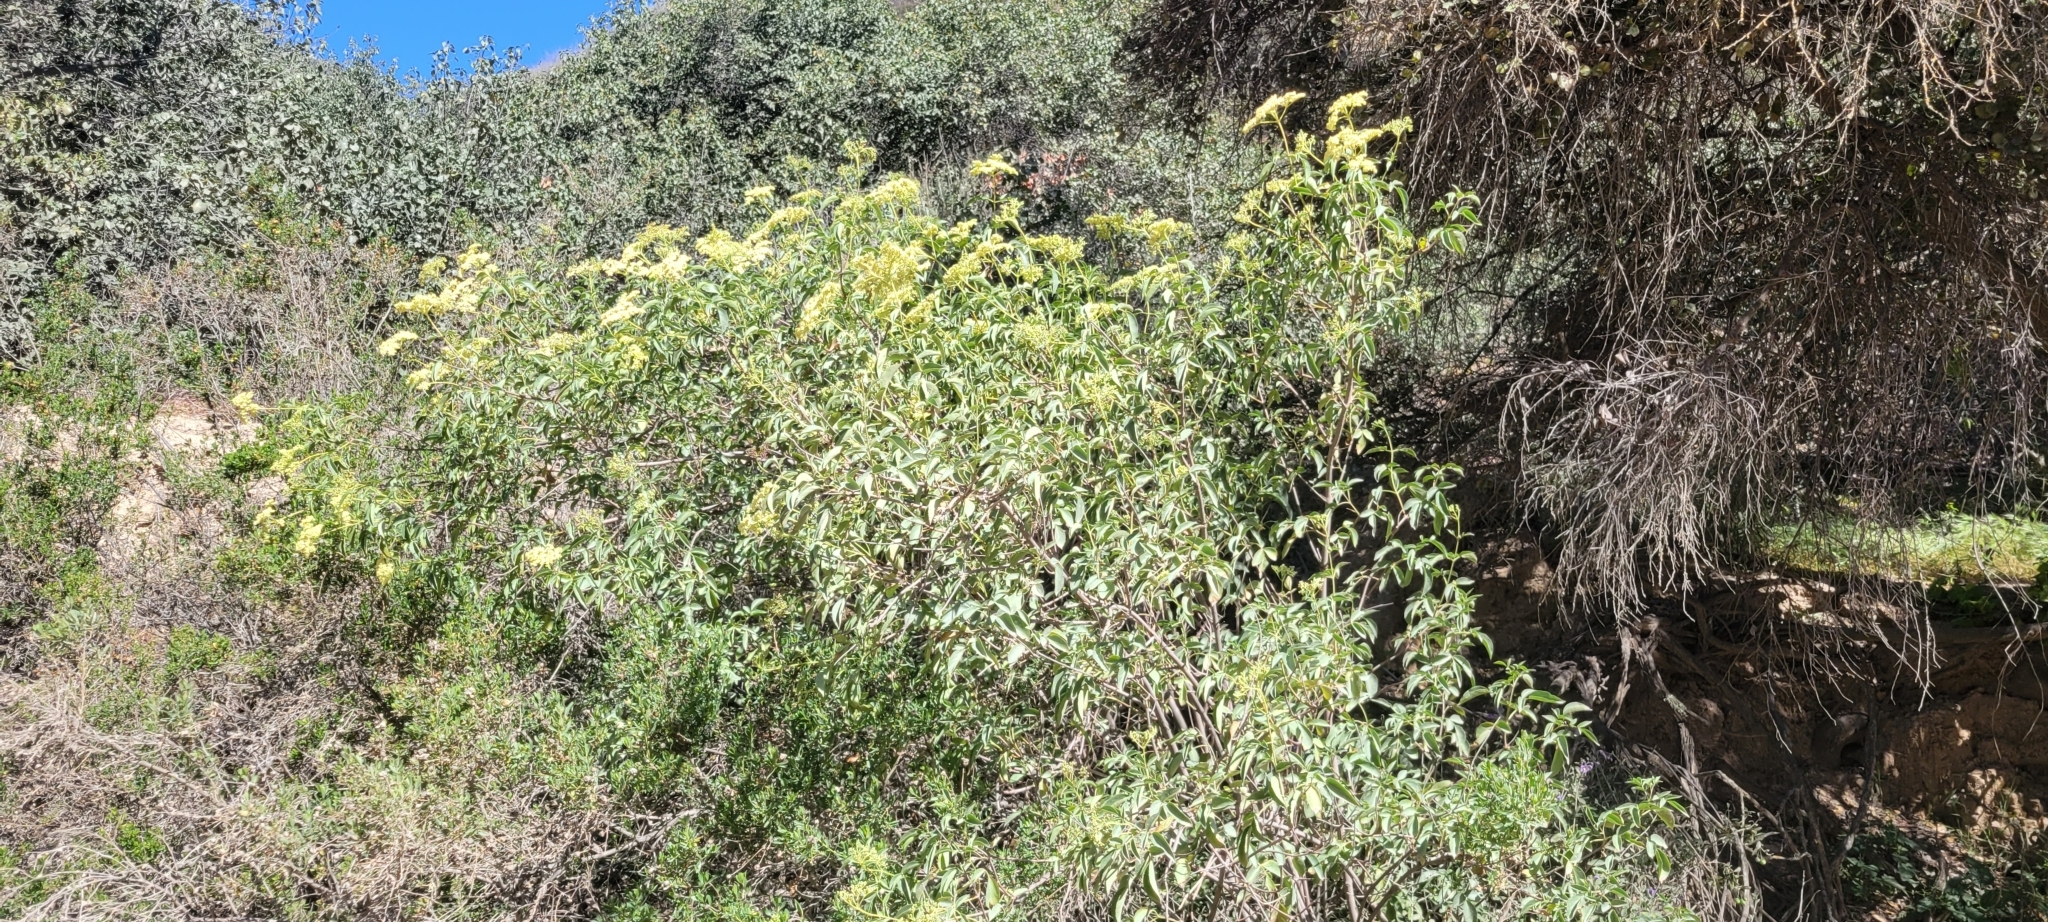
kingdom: Plantae
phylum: Tracheophyta
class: Magnoliopsida
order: Dipsacales
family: Viburnaceae
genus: Sambucus
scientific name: Sambucus cerulea
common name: Blue elder
